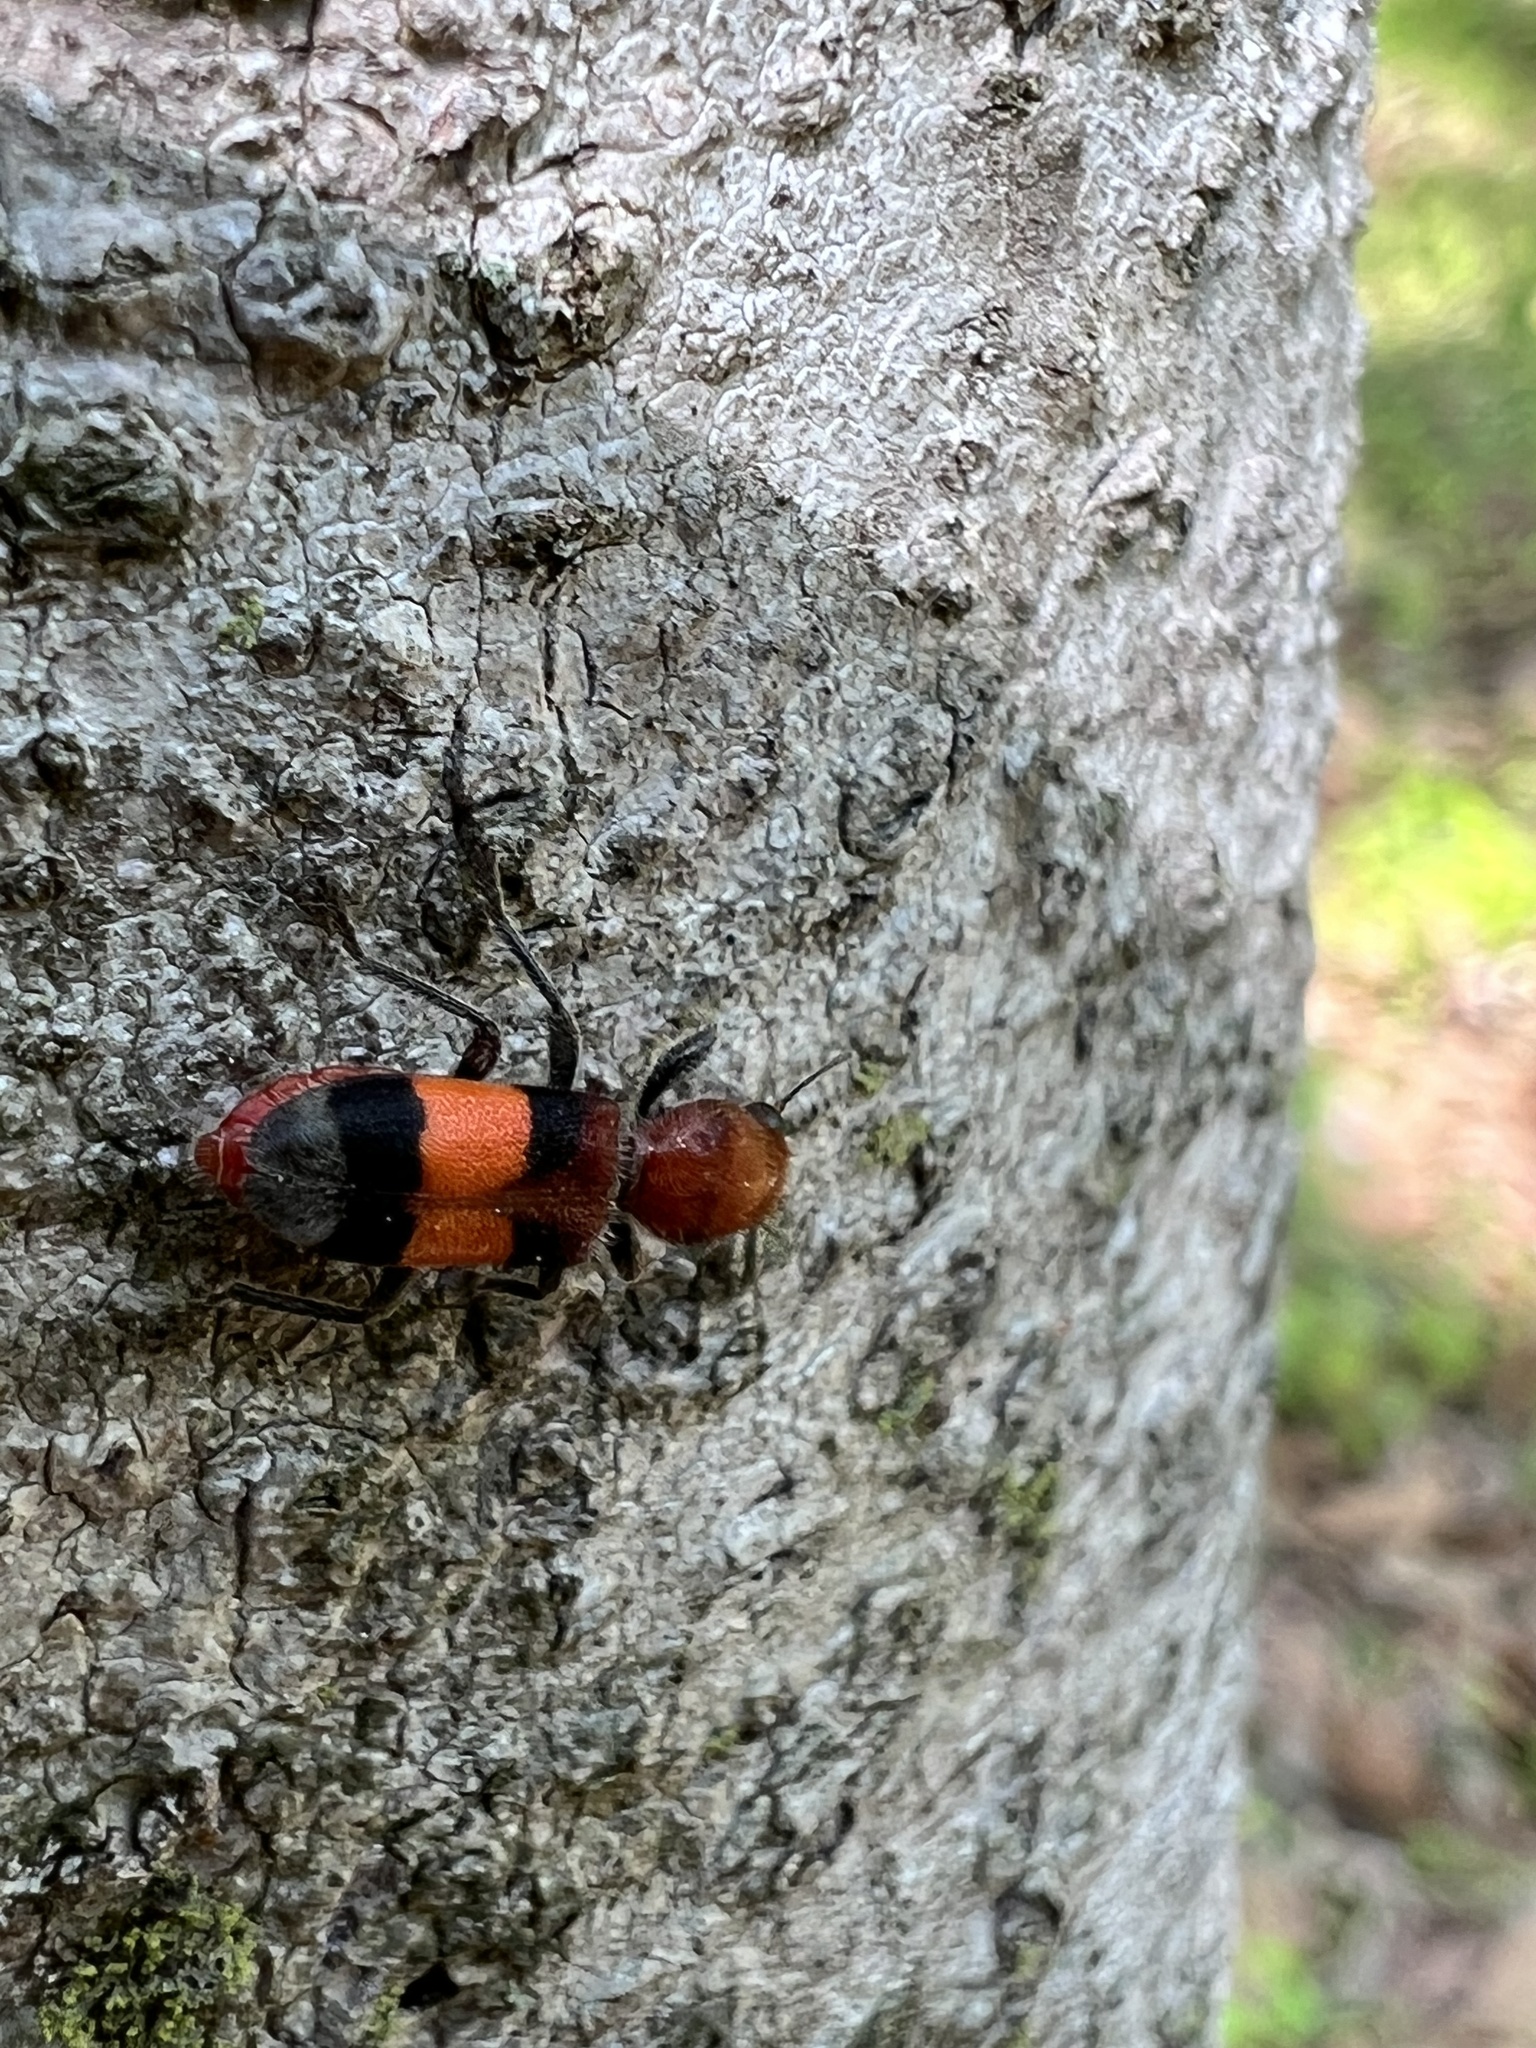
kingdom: Animalia
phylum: Arthropoda
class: Insecta
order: Coleoptera
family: Cleridae
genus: Enoclerus
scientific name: Enoclerus ichneumoneus
